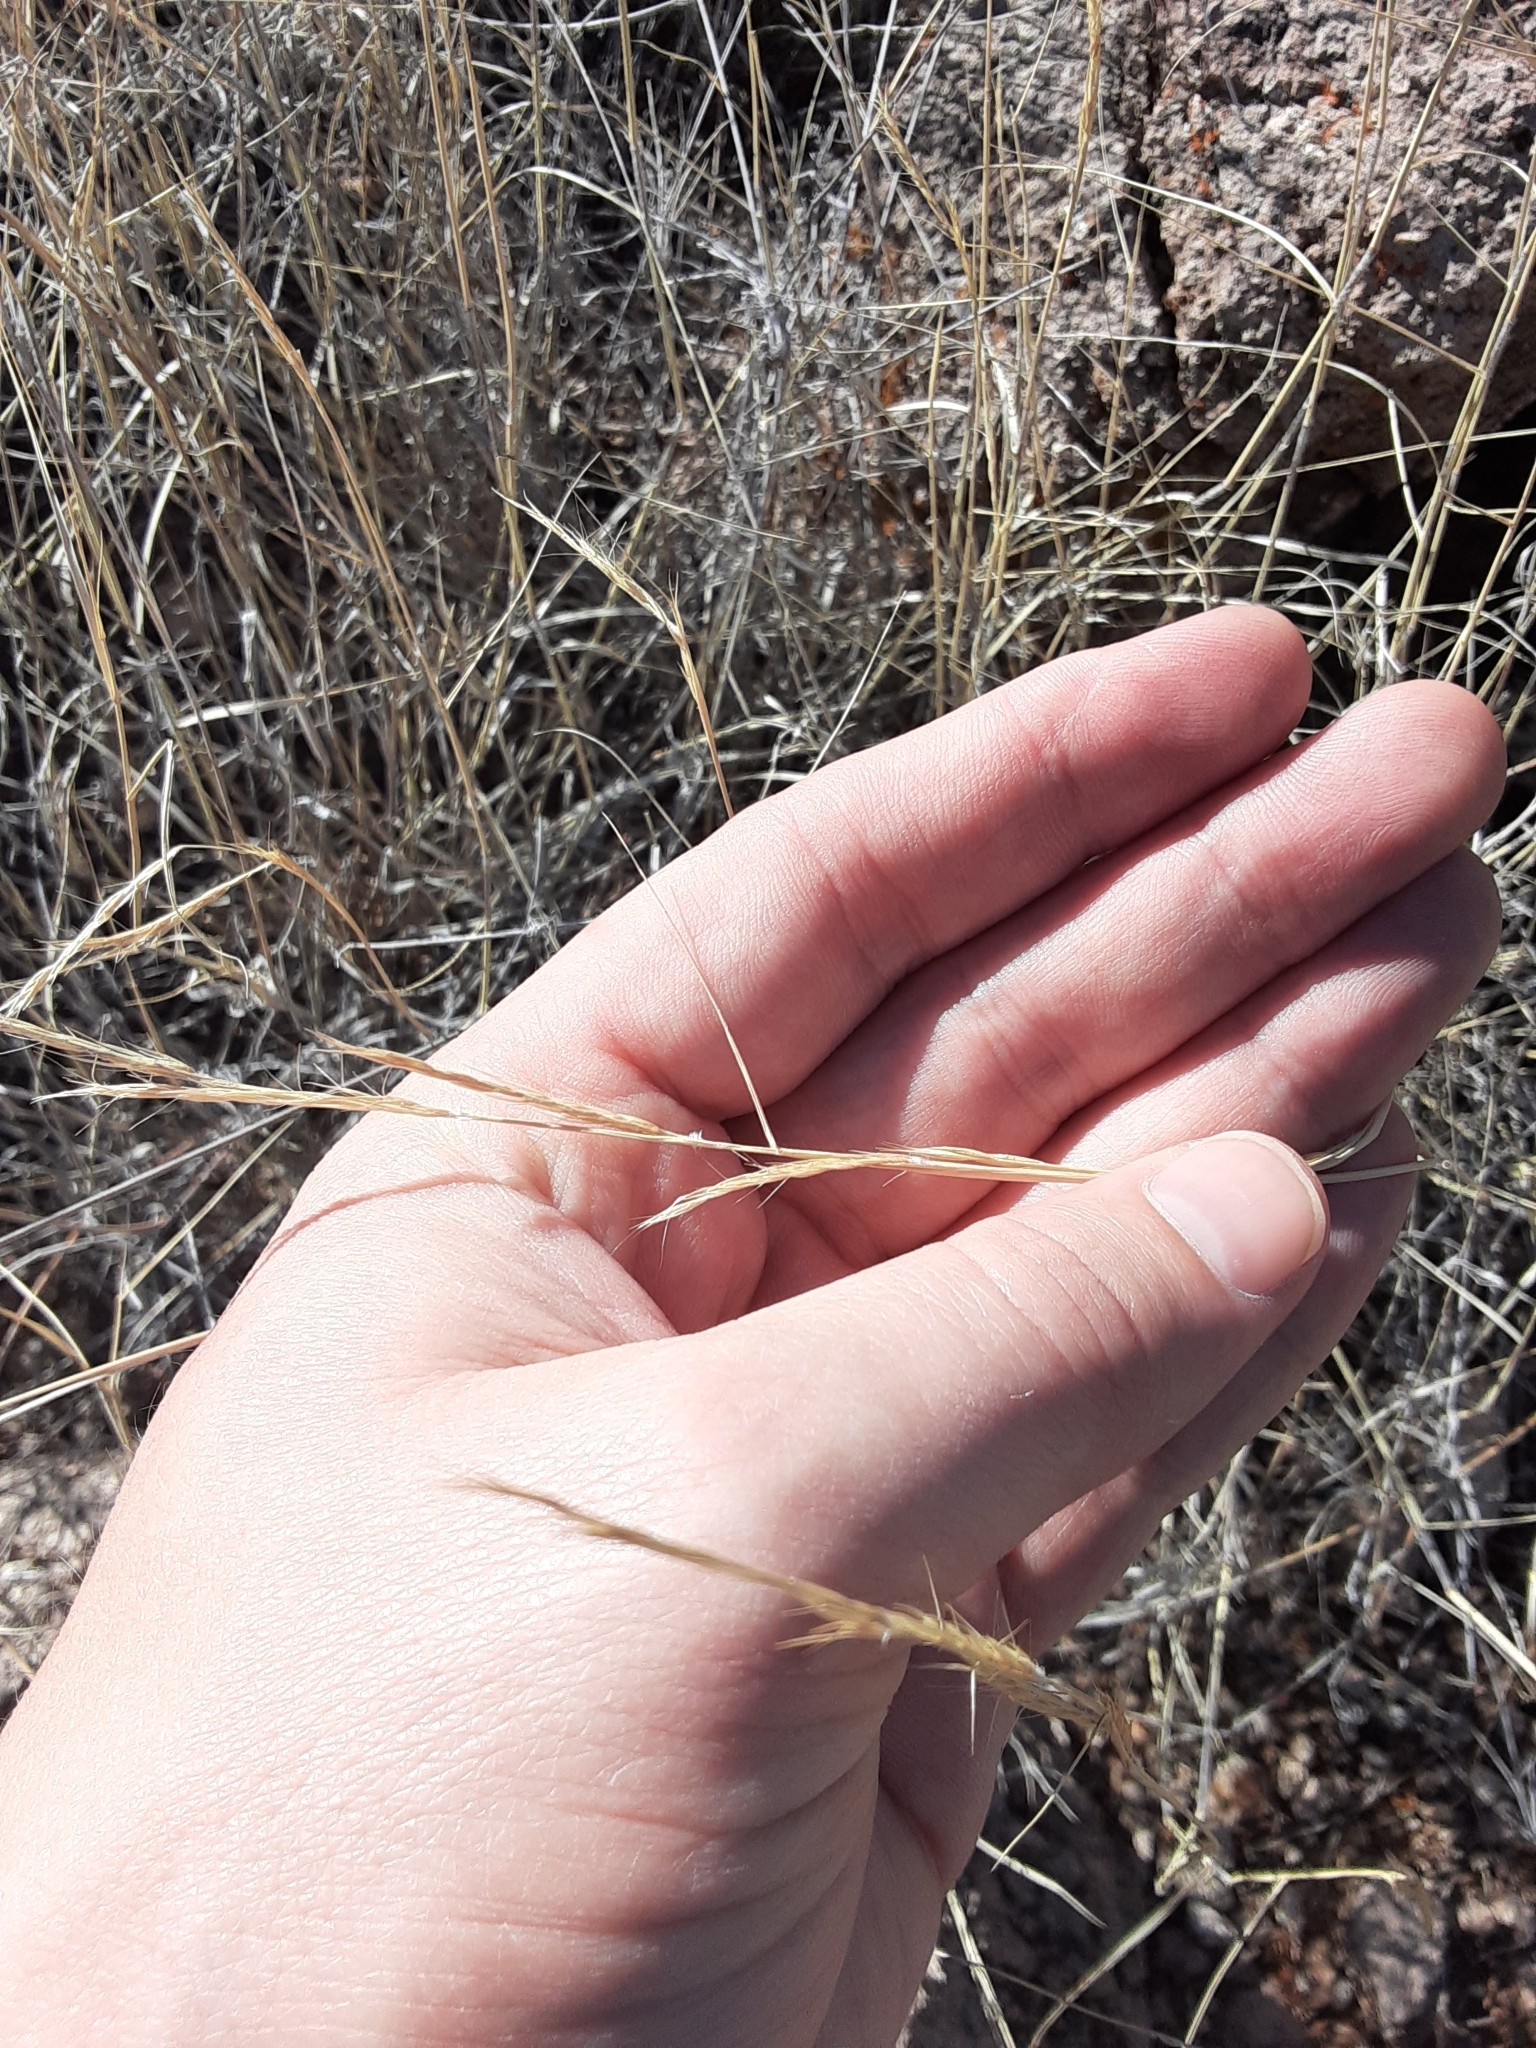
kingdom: Plantae
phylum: Tracheophyta
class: Liliopsida
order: Poales
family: Poaceae
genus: Bouteloua
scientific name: Bouteloua eriopoda
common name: Woolly foot grama
